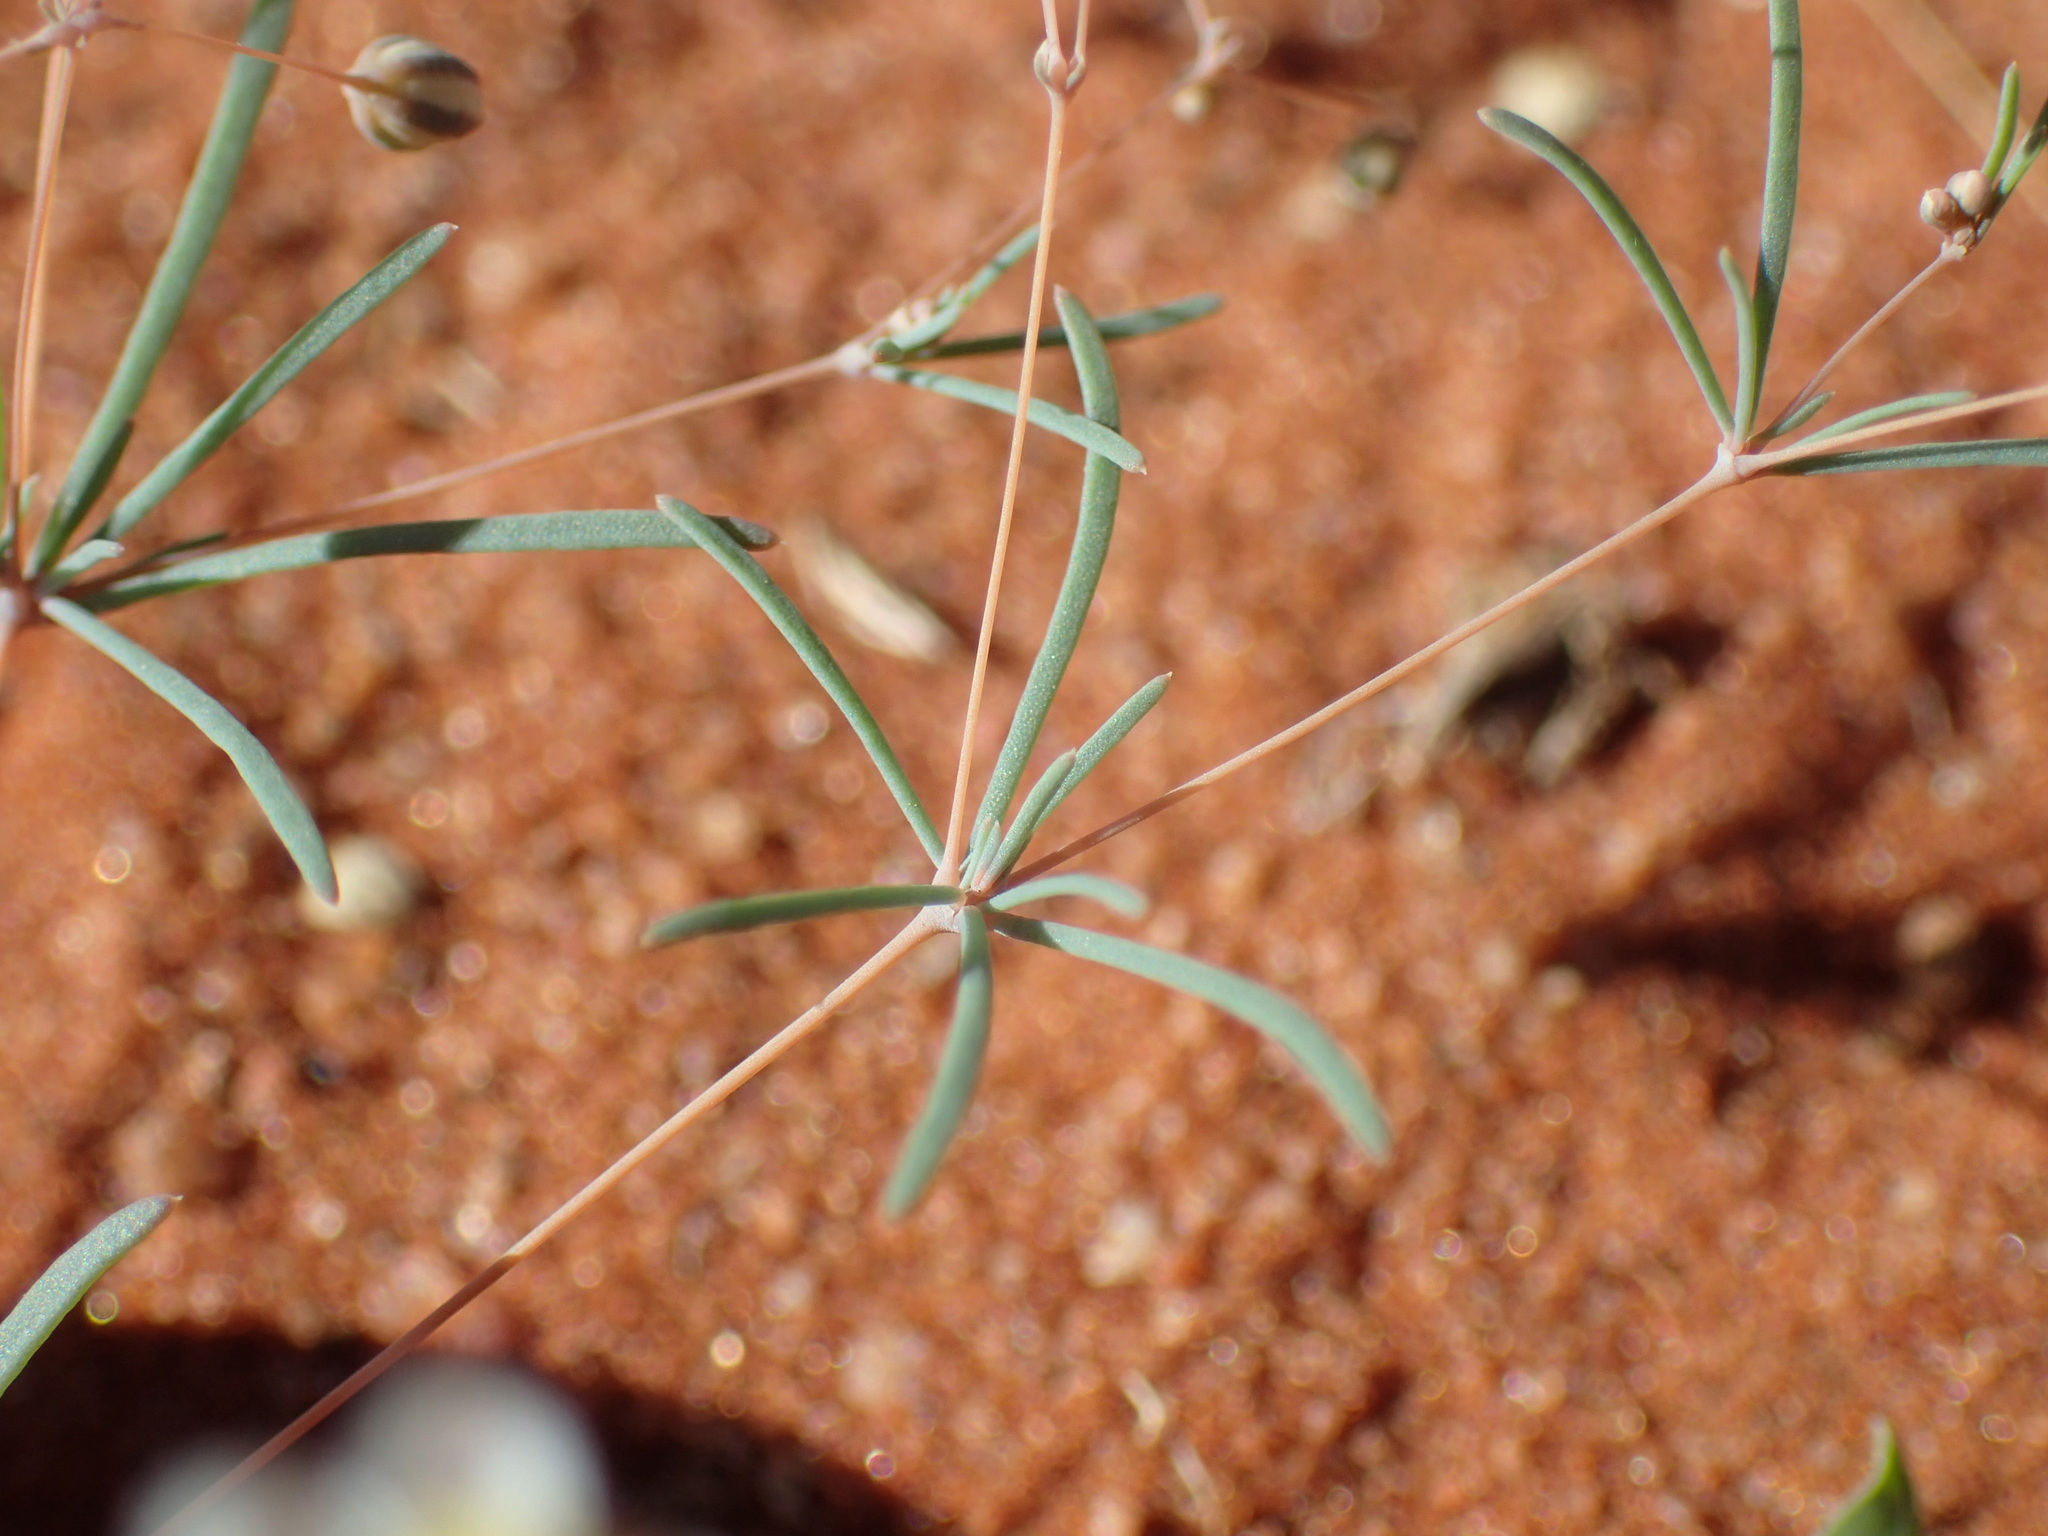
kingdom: Plantae
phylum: Tracheophyta
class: Magnoliopsida
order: Caryophyllales
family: Molluginaceae
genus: Hypertelis
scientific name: Hypertelis cerviana
